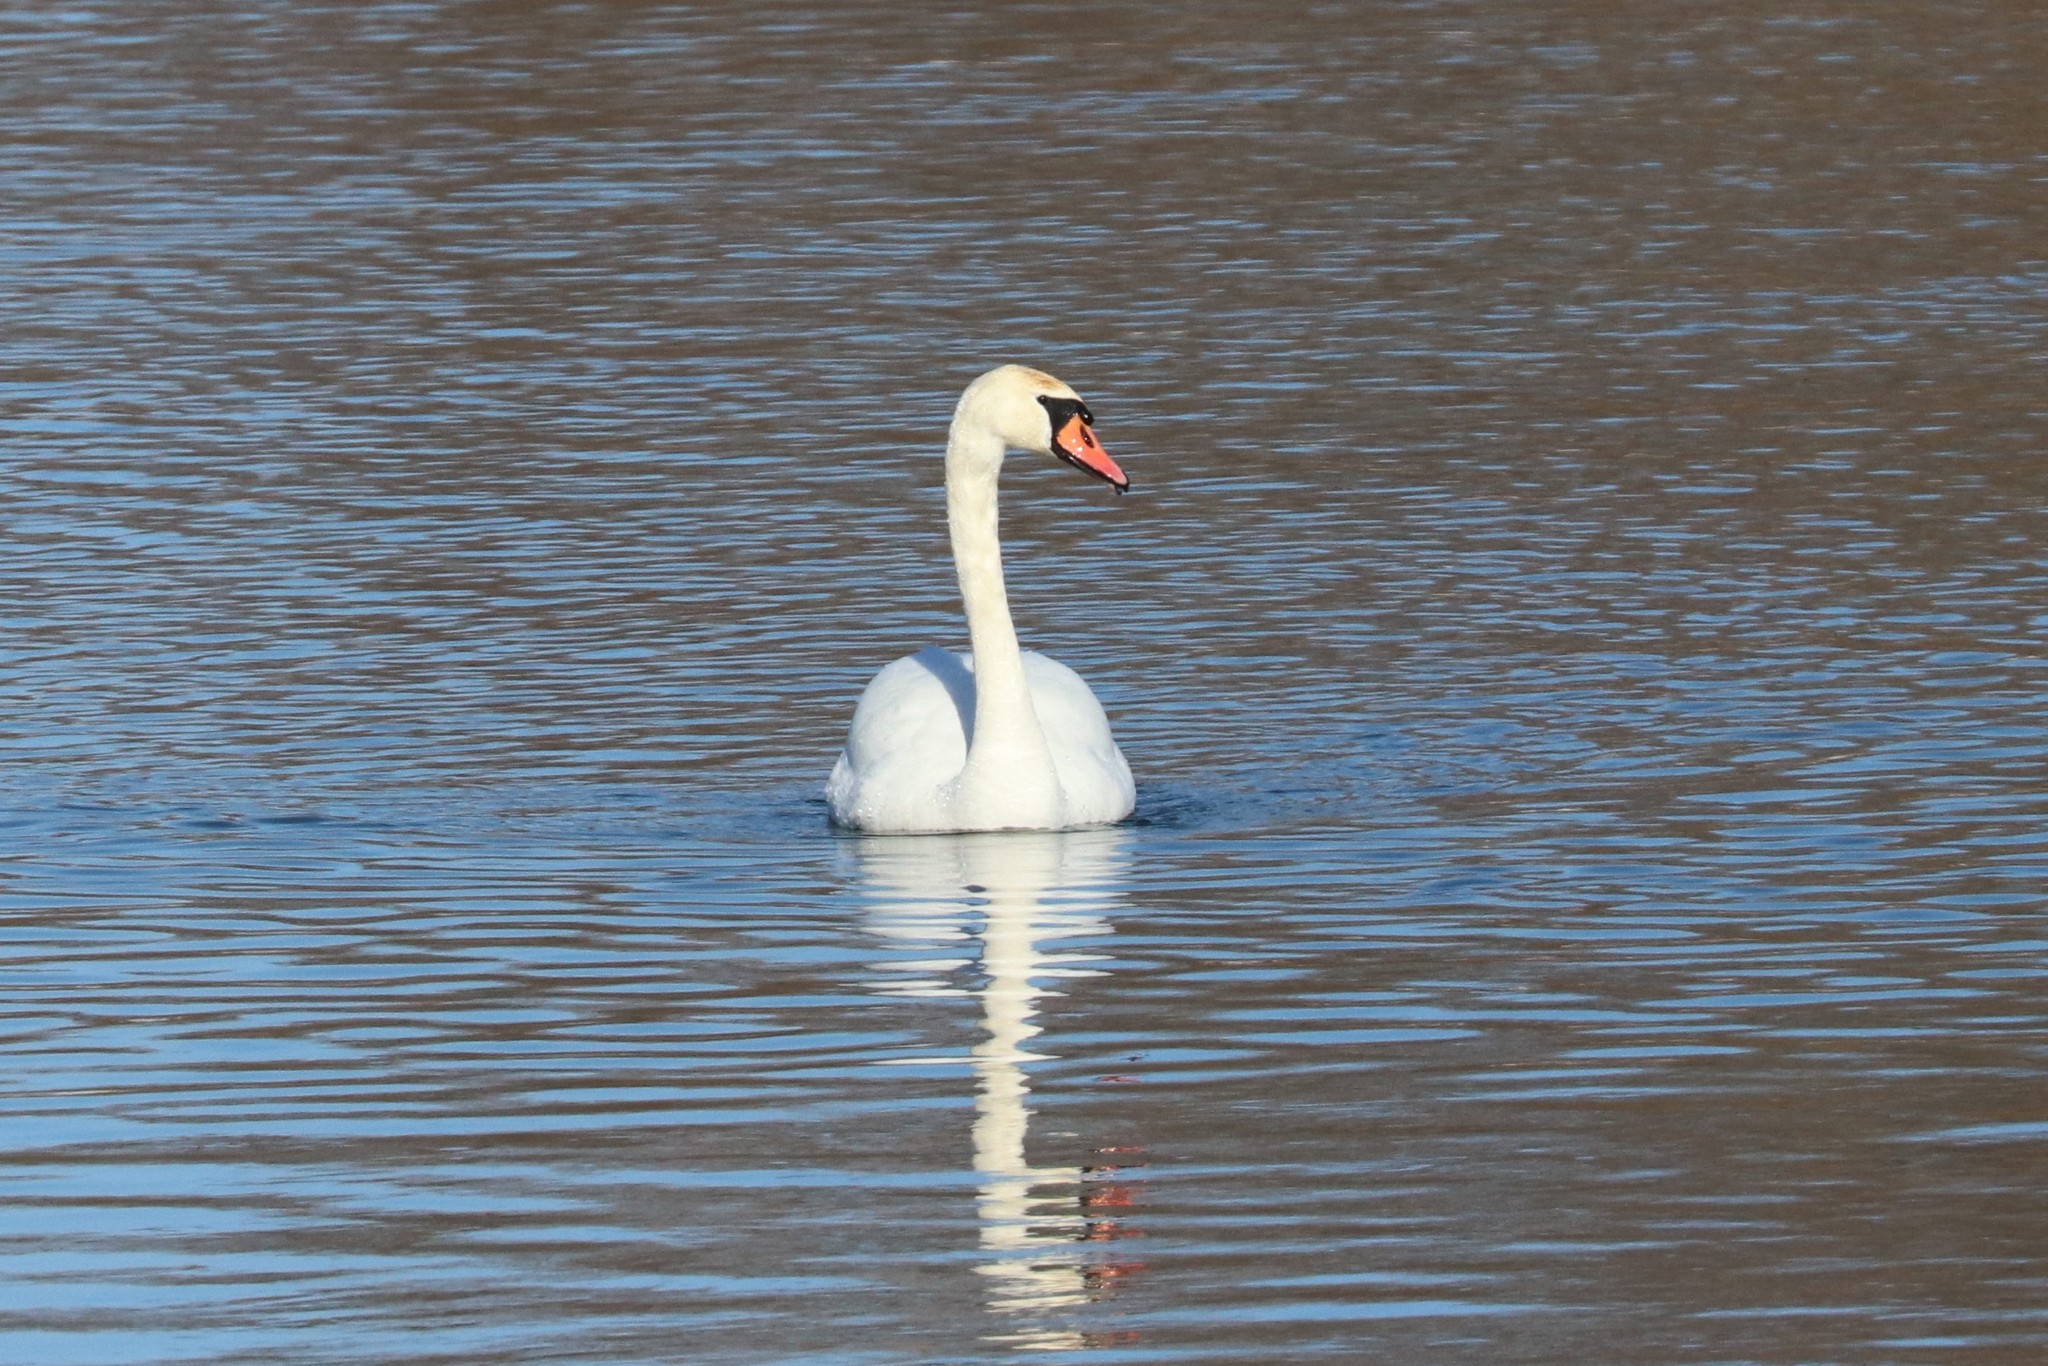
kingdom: Animalia
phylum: Chordata
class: Aves
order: Anseriformes
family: Anatidae
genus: Cygnus
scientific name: Cygnus olor
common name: Mute swan
